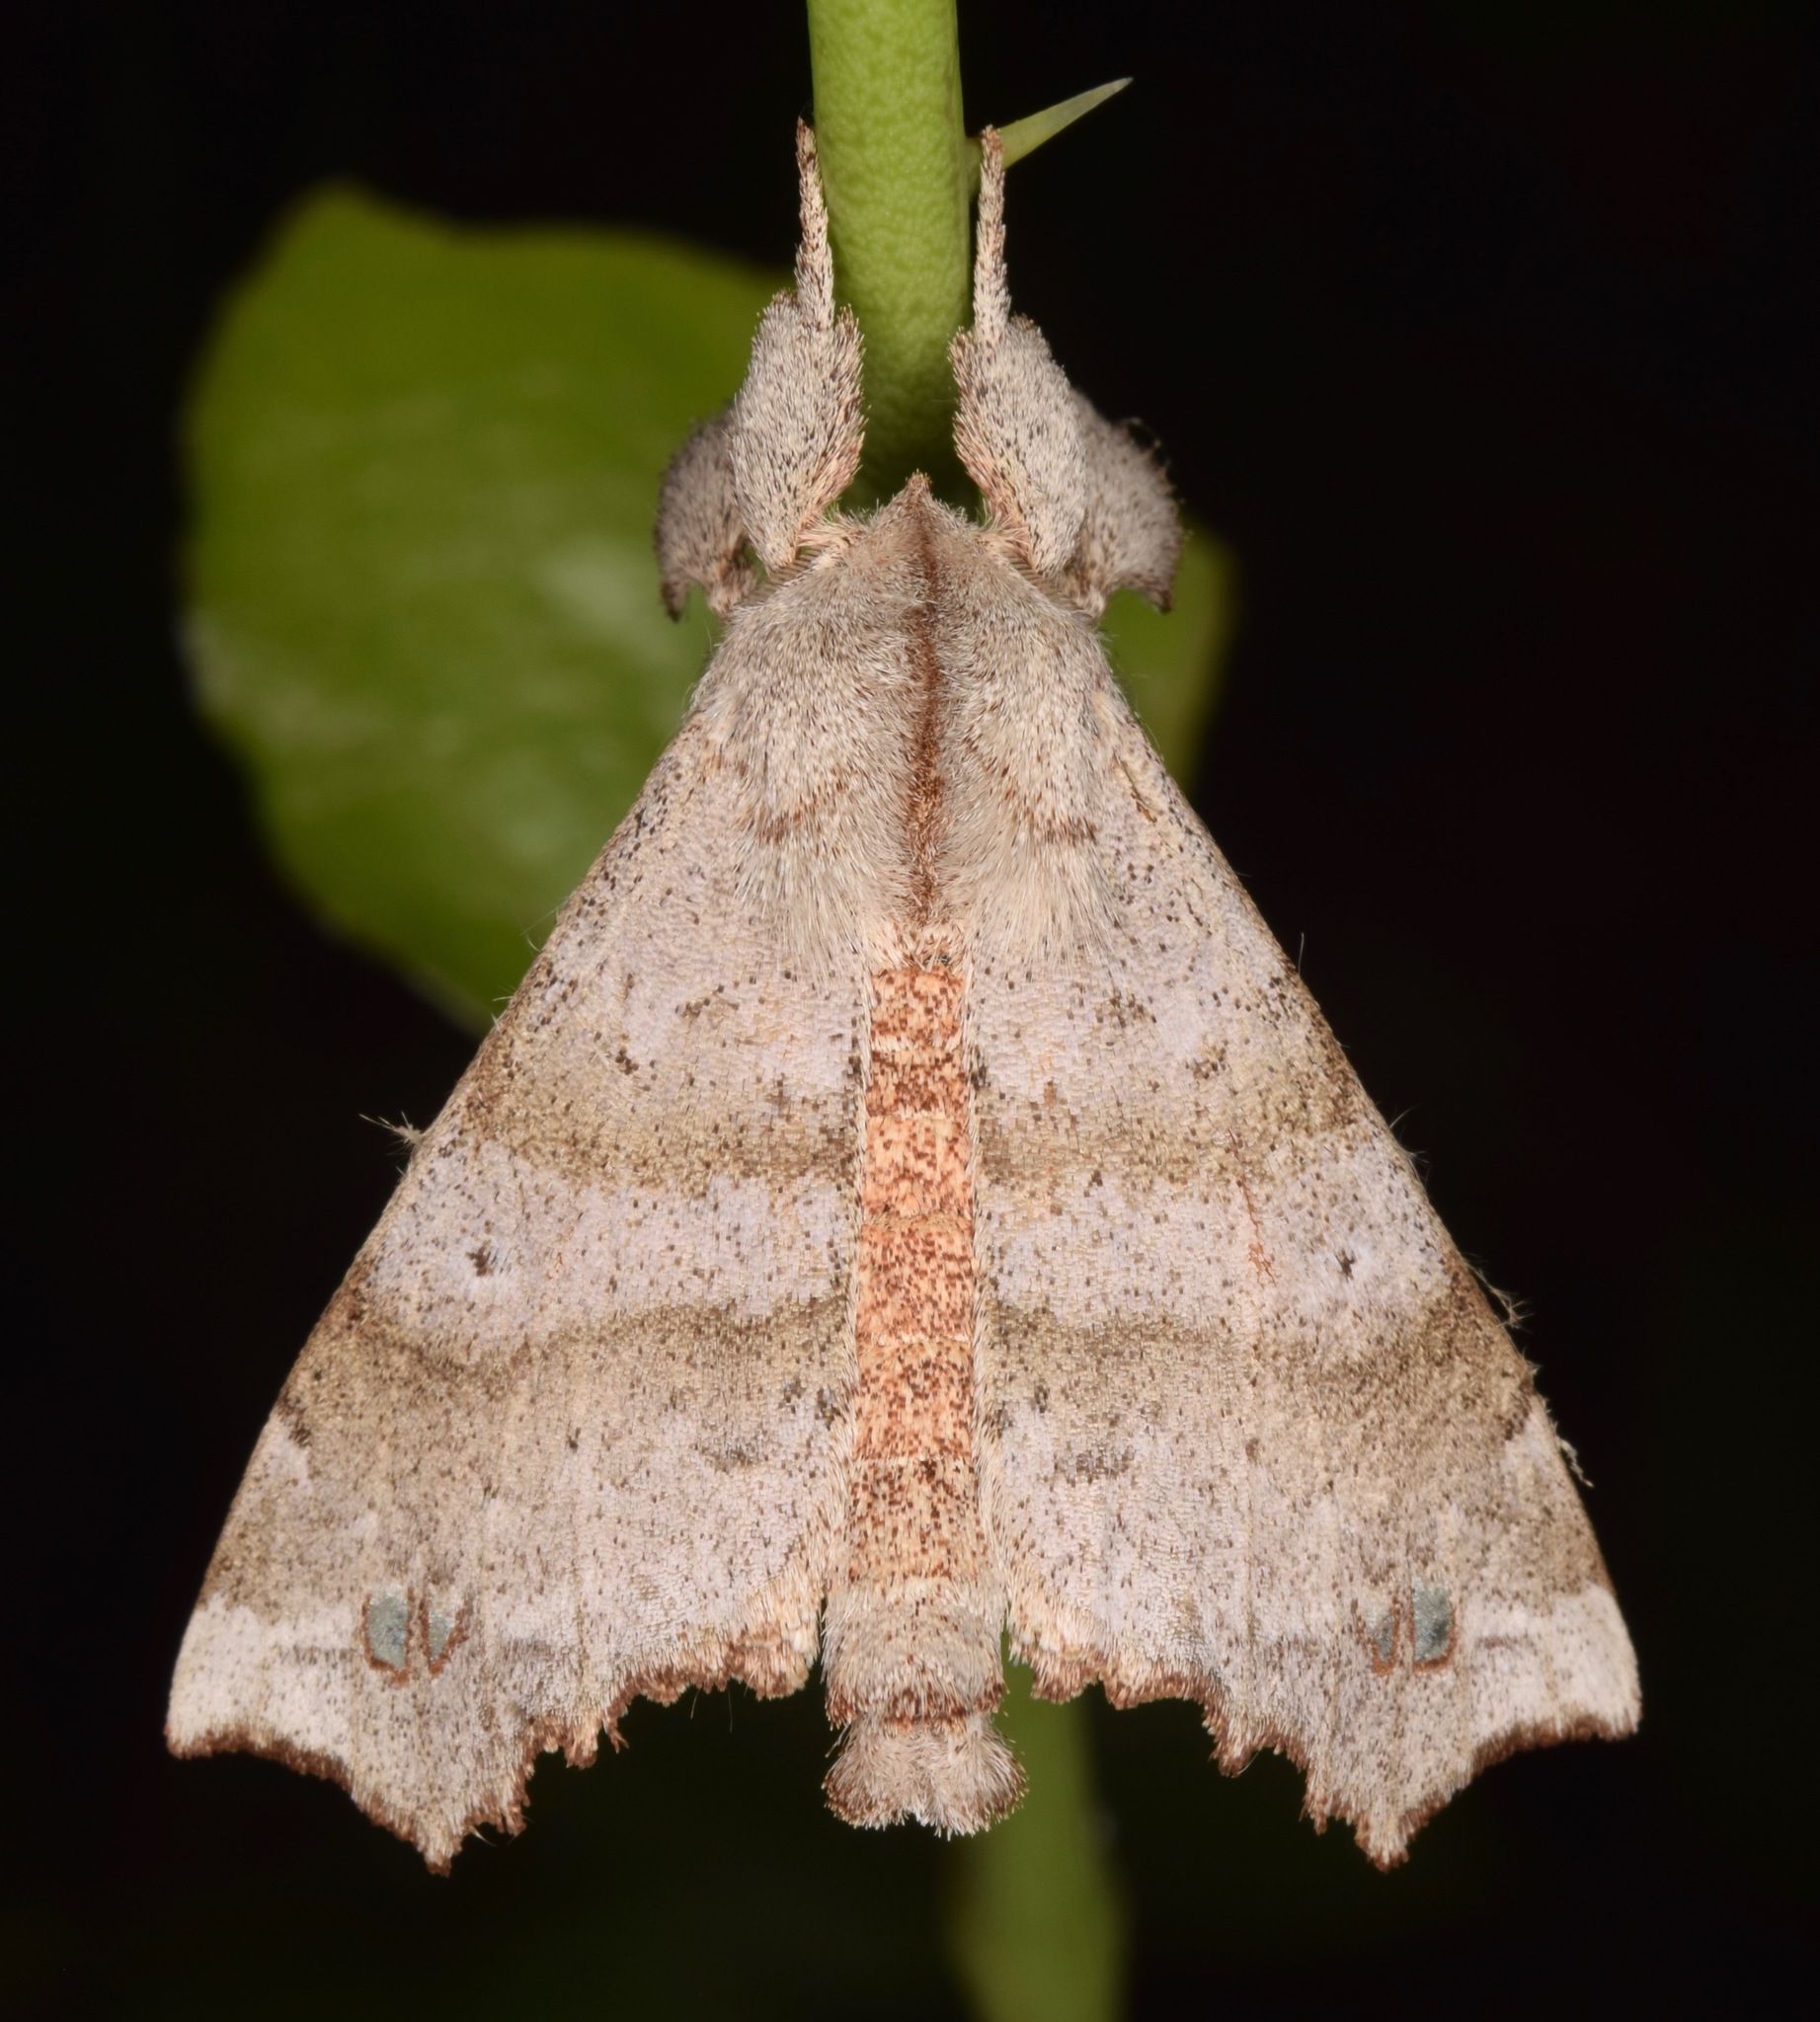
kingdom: Animalia
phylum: Arthropoda
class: Insecta
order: Lepidoptera
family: Apatelodidae
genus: Olceclostera
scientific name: Olceclostera angelica
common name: Angel moth
